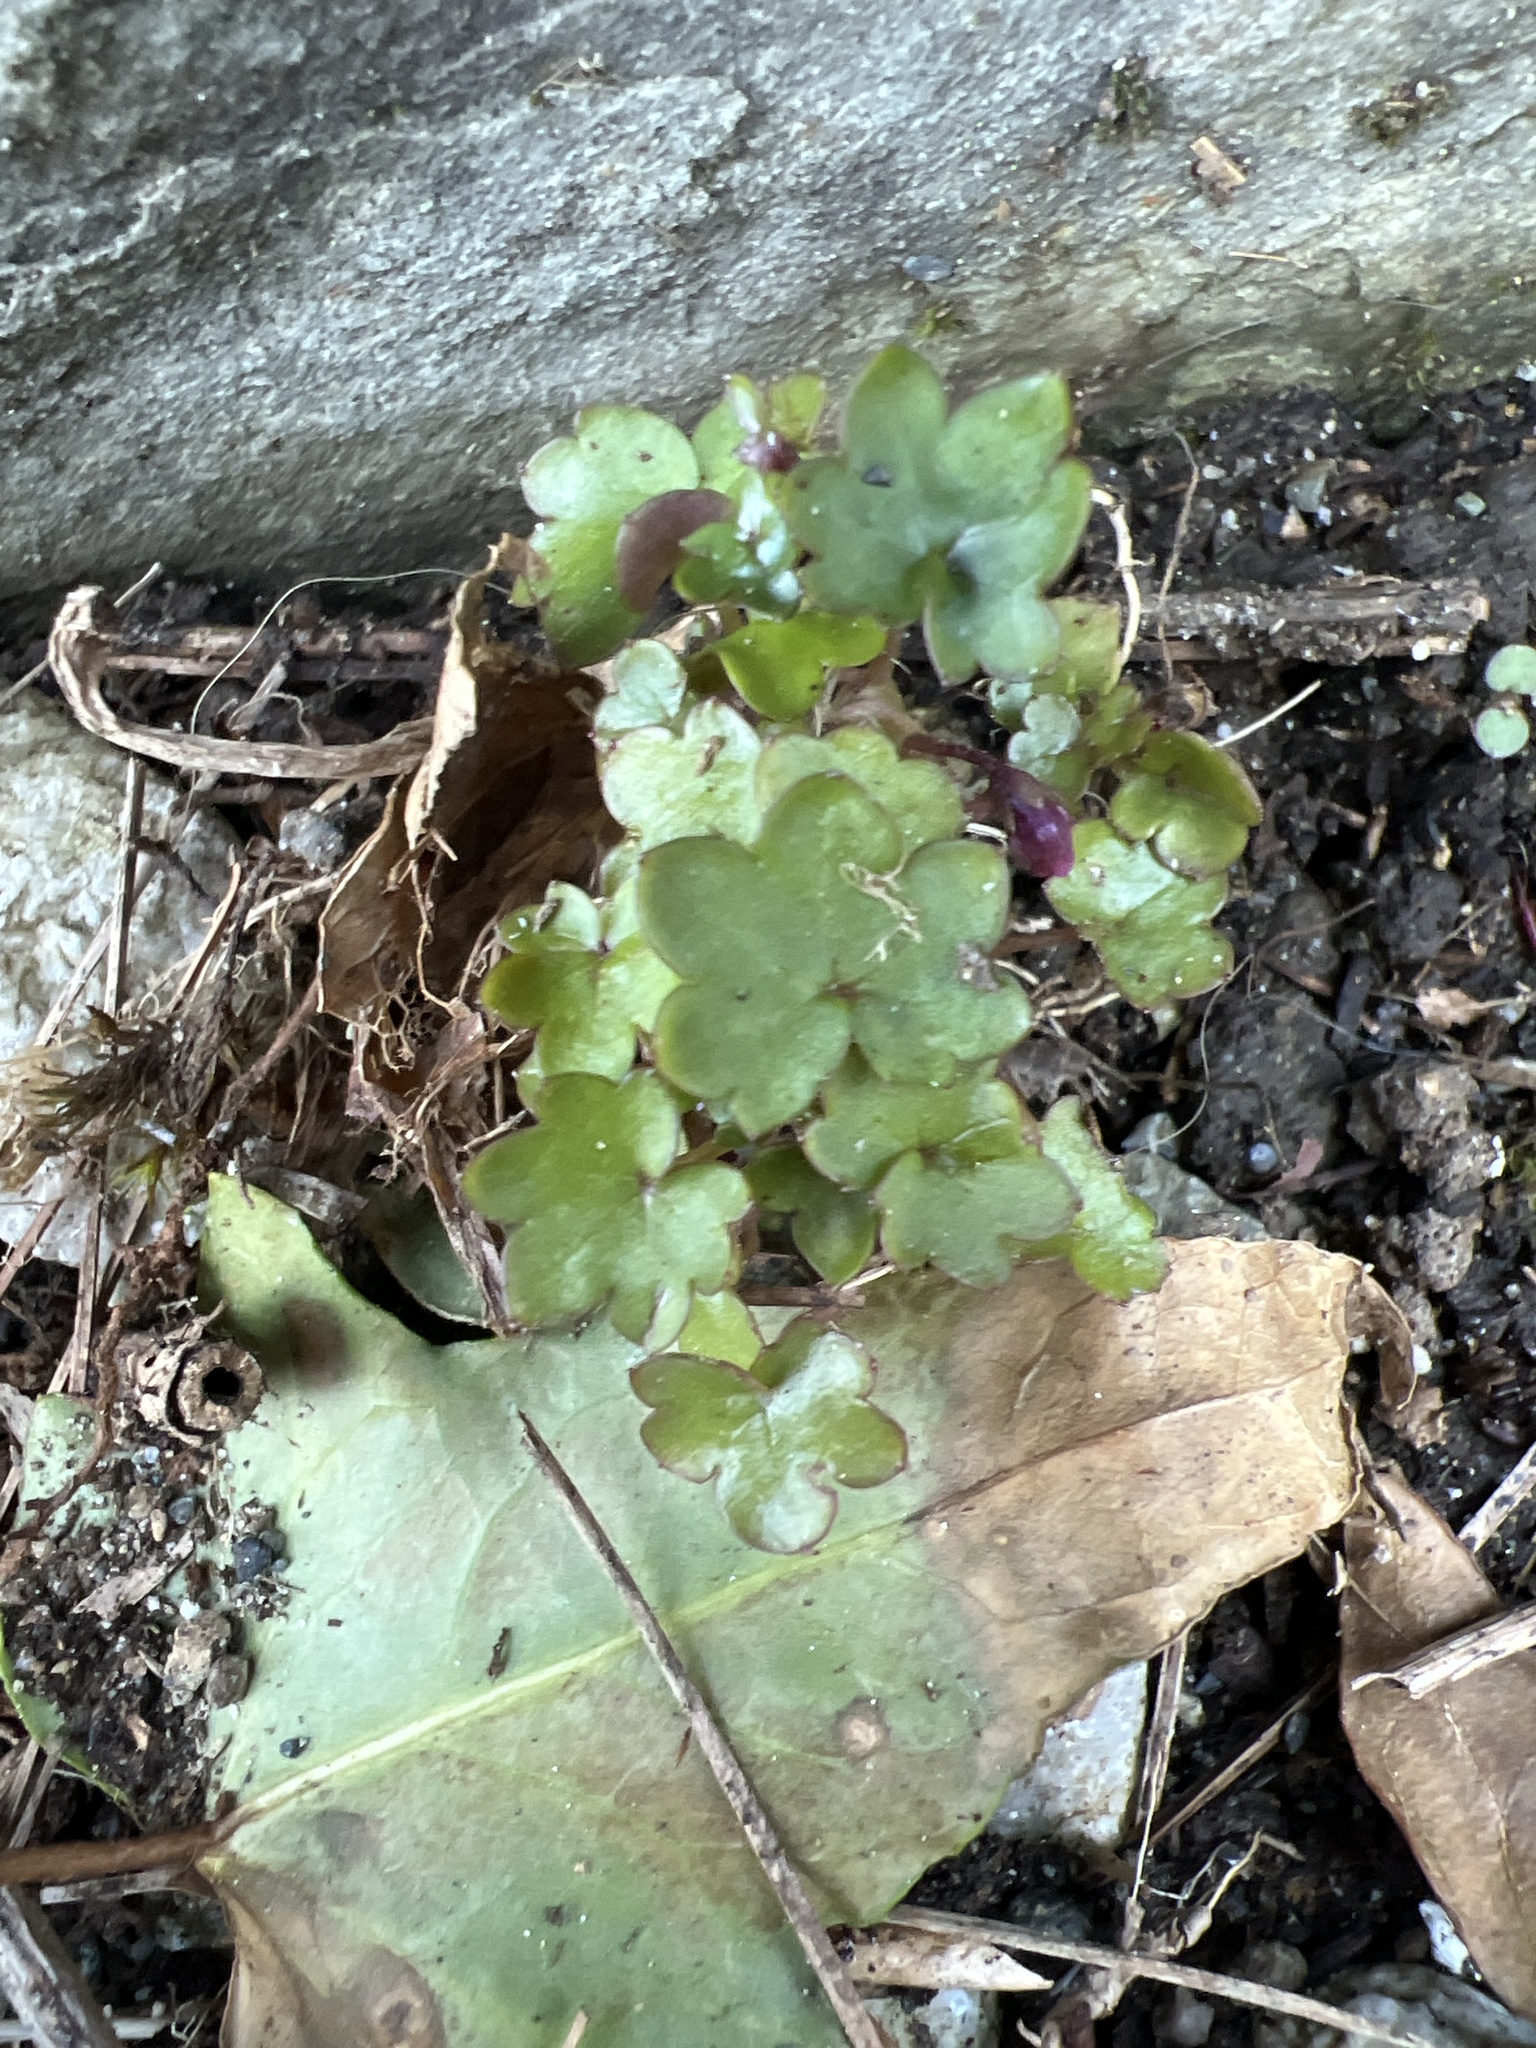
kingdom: Plantae
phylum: Tracheophyta
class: Magnoliopsida
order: Lamiales
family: Plantaginaceae
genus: Cymbalaria
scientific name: Cymbalaria muralis
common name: Ivy-leaved toadflax
